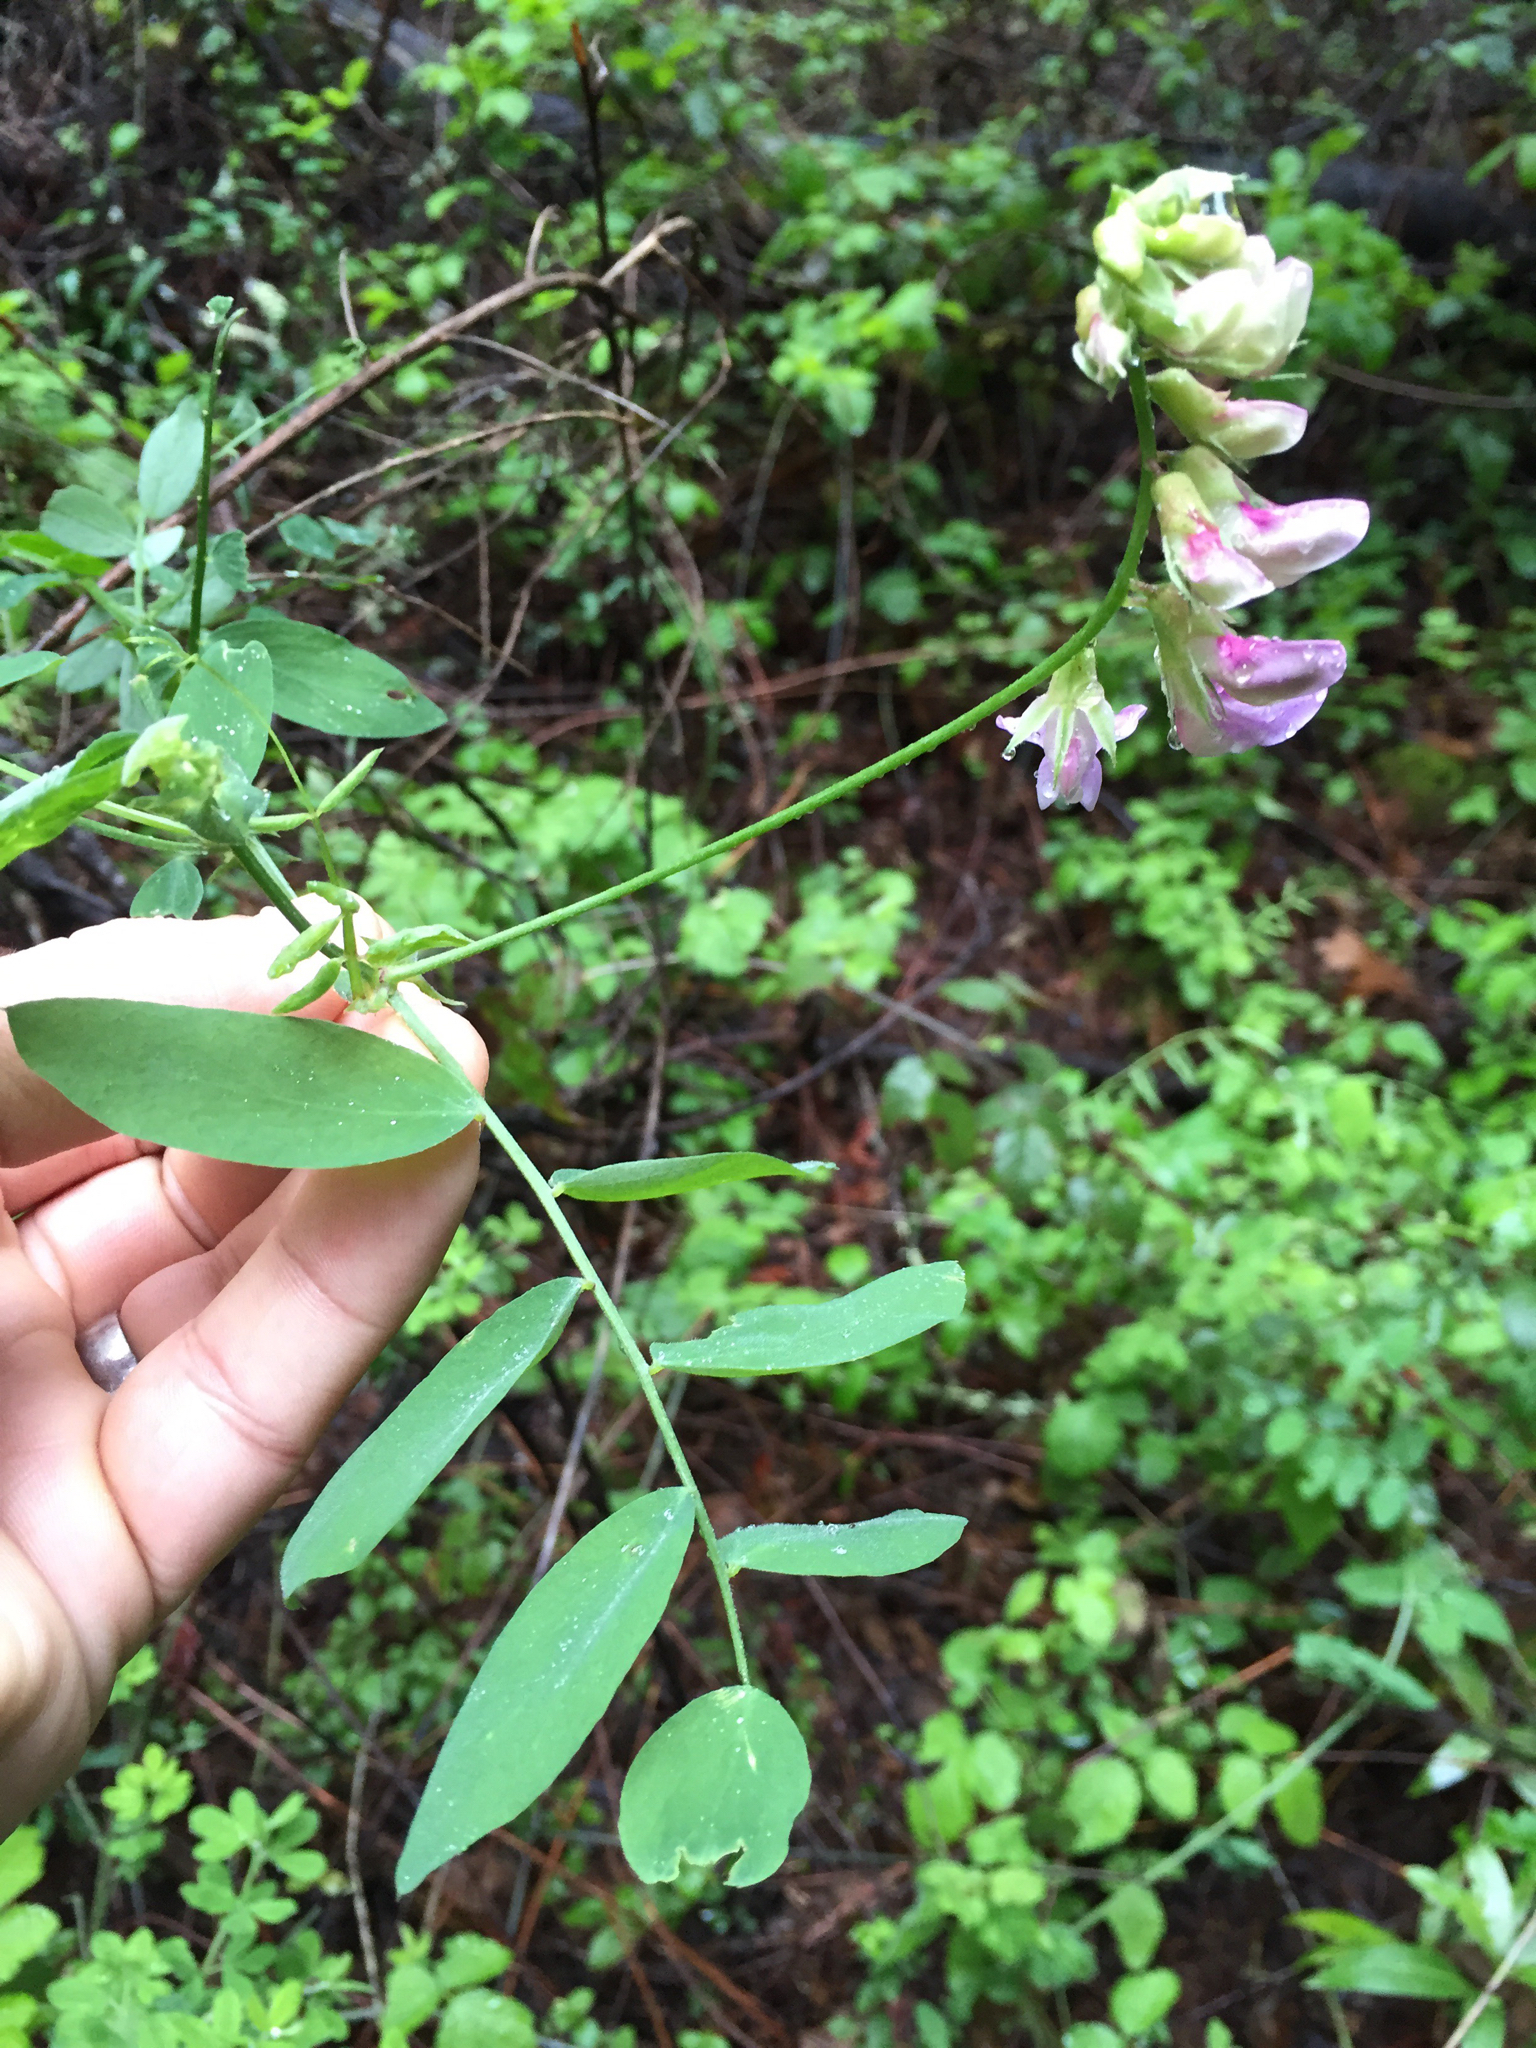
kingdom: Plantae
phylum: Tracheophyta
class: Magnoliopsida
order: Fabales
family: Fabaceae
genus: Lathyrus
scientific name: Lathyrus vestitus
